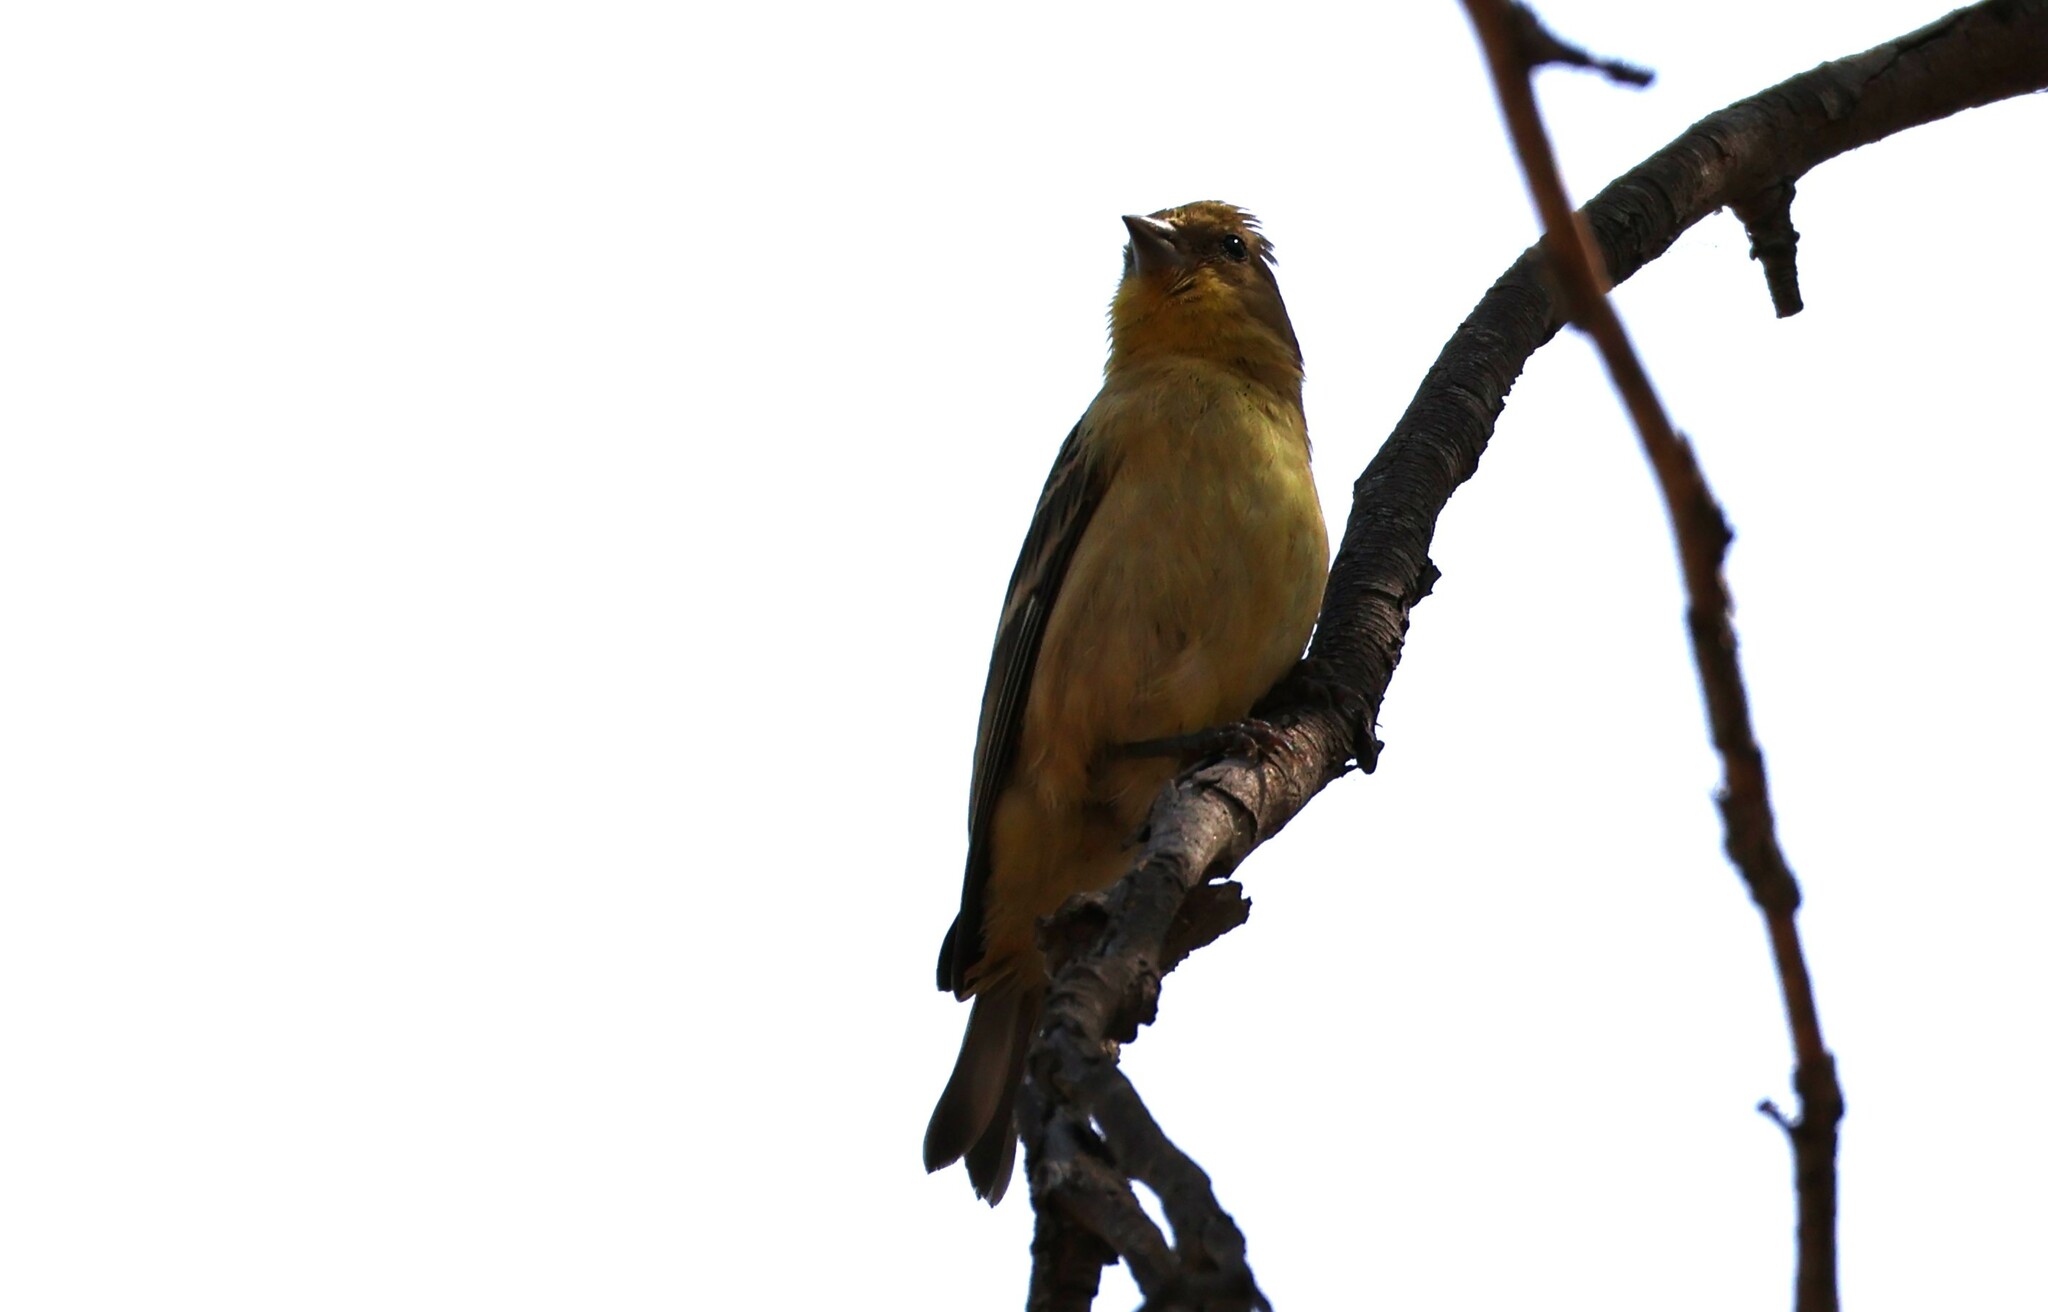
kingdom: Animalia
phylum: Chordata
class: Aves
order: Passeriformes
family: Fringillidae
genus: Spinus
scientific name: Spinus psaltria
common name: Lesser goldfinch
